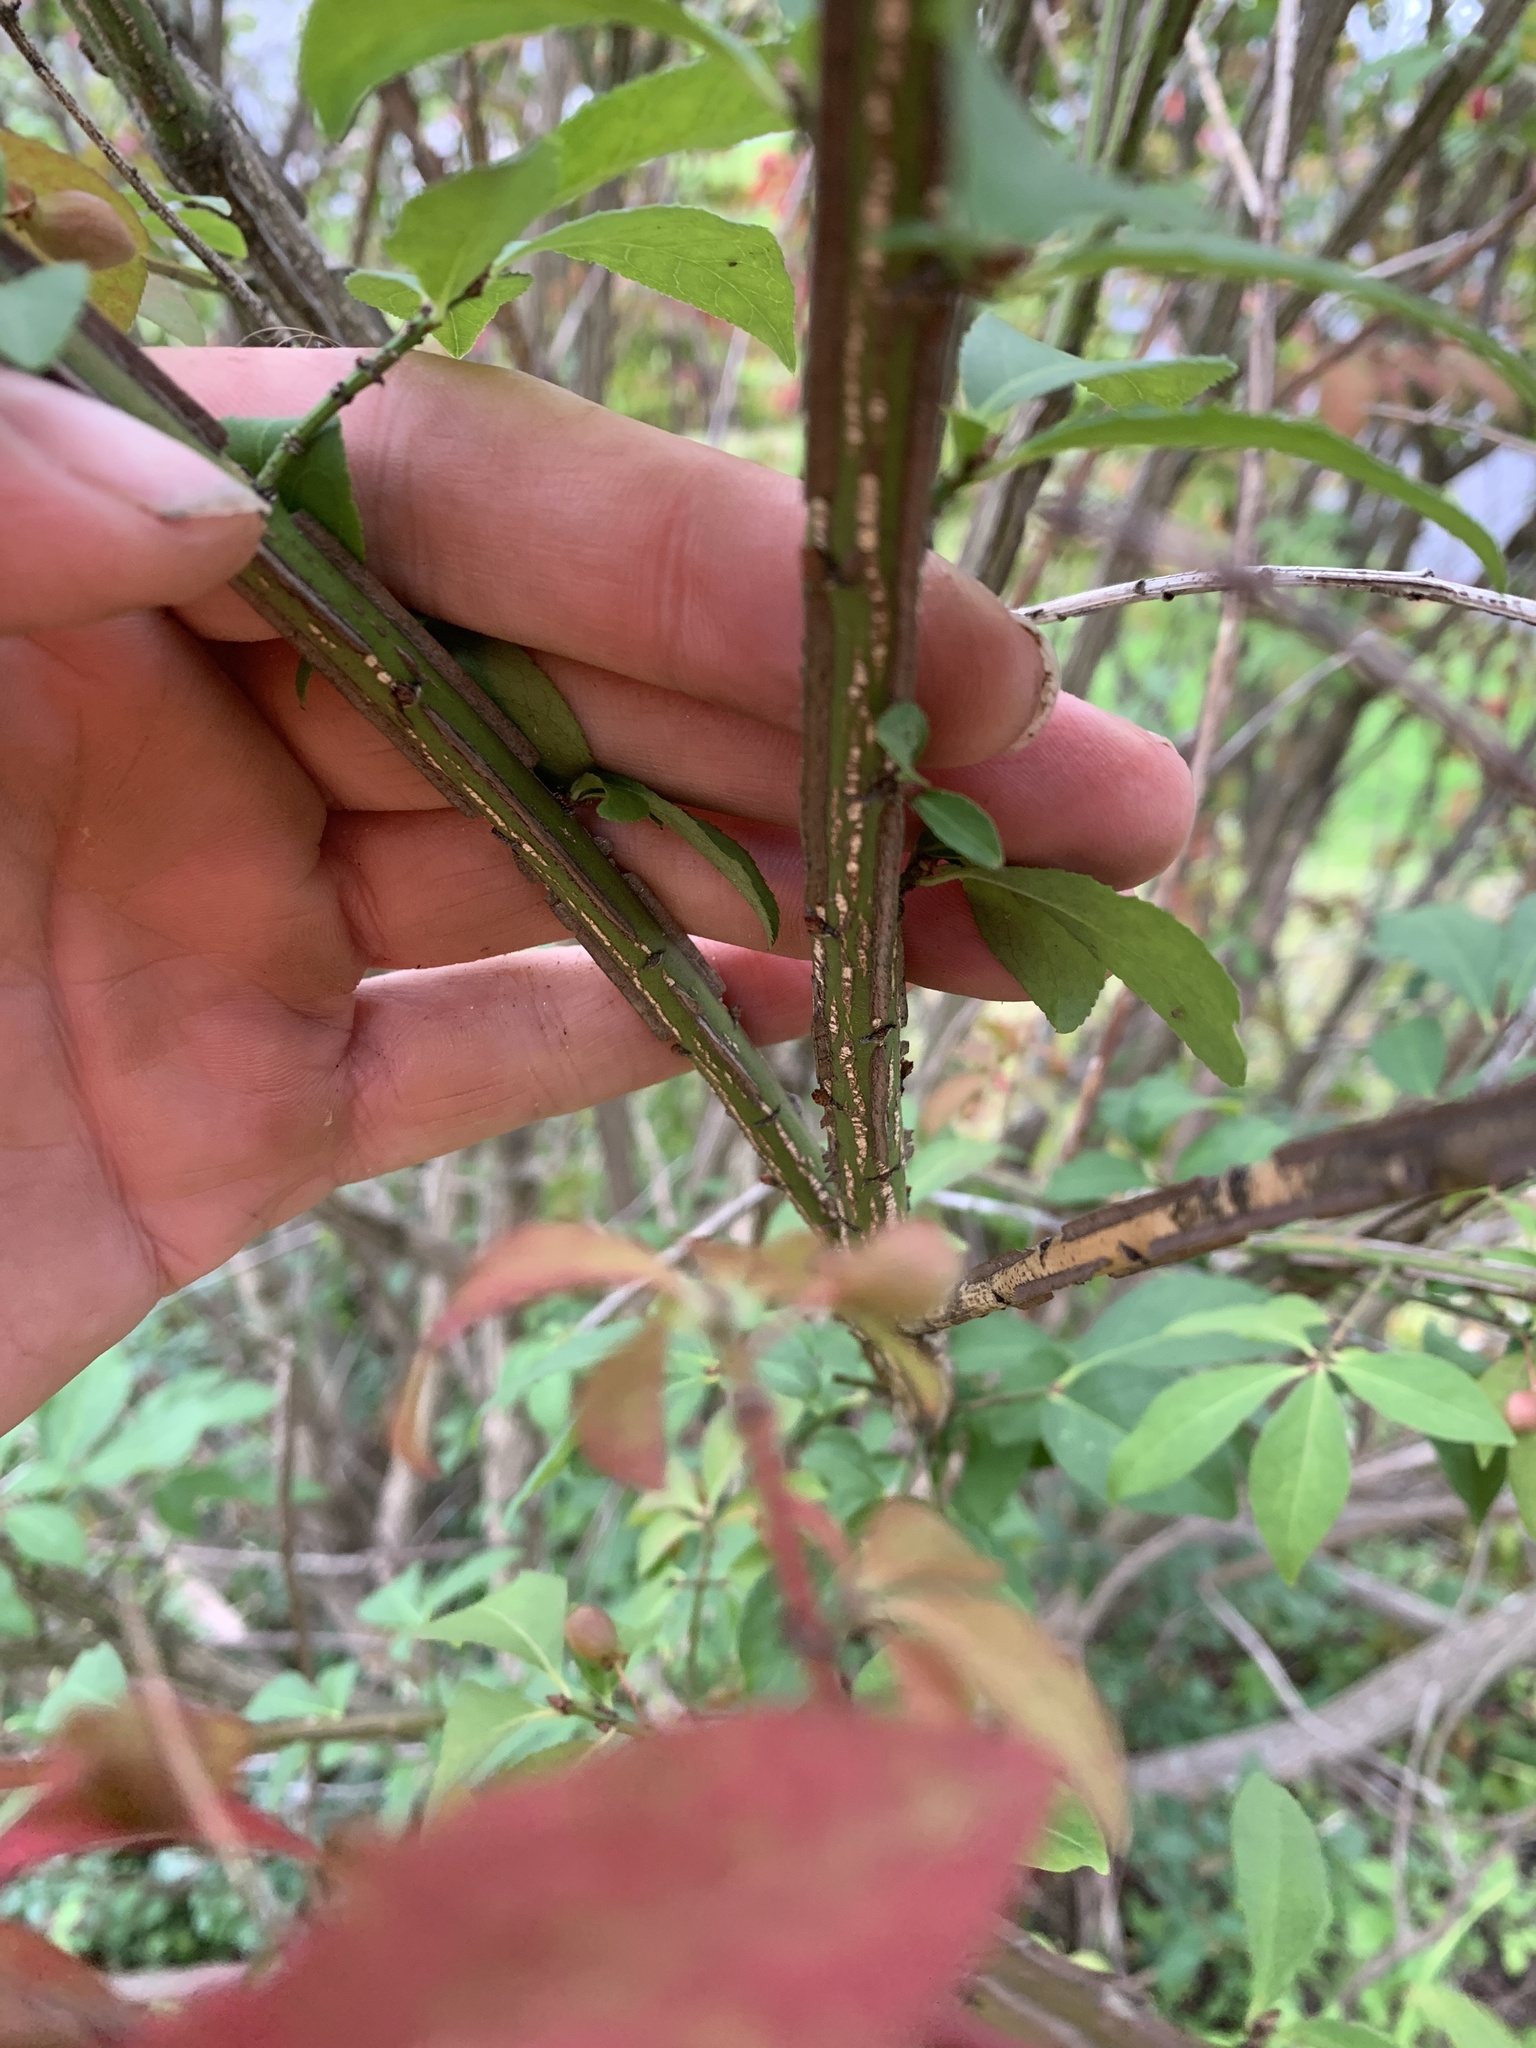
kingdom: Plantae
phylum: Tracheophyta
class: Magnoliopsida
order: Celastrales
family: Celastraceae
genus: Euonymus
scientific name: Euonymus alatus
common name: Winged euonymus
